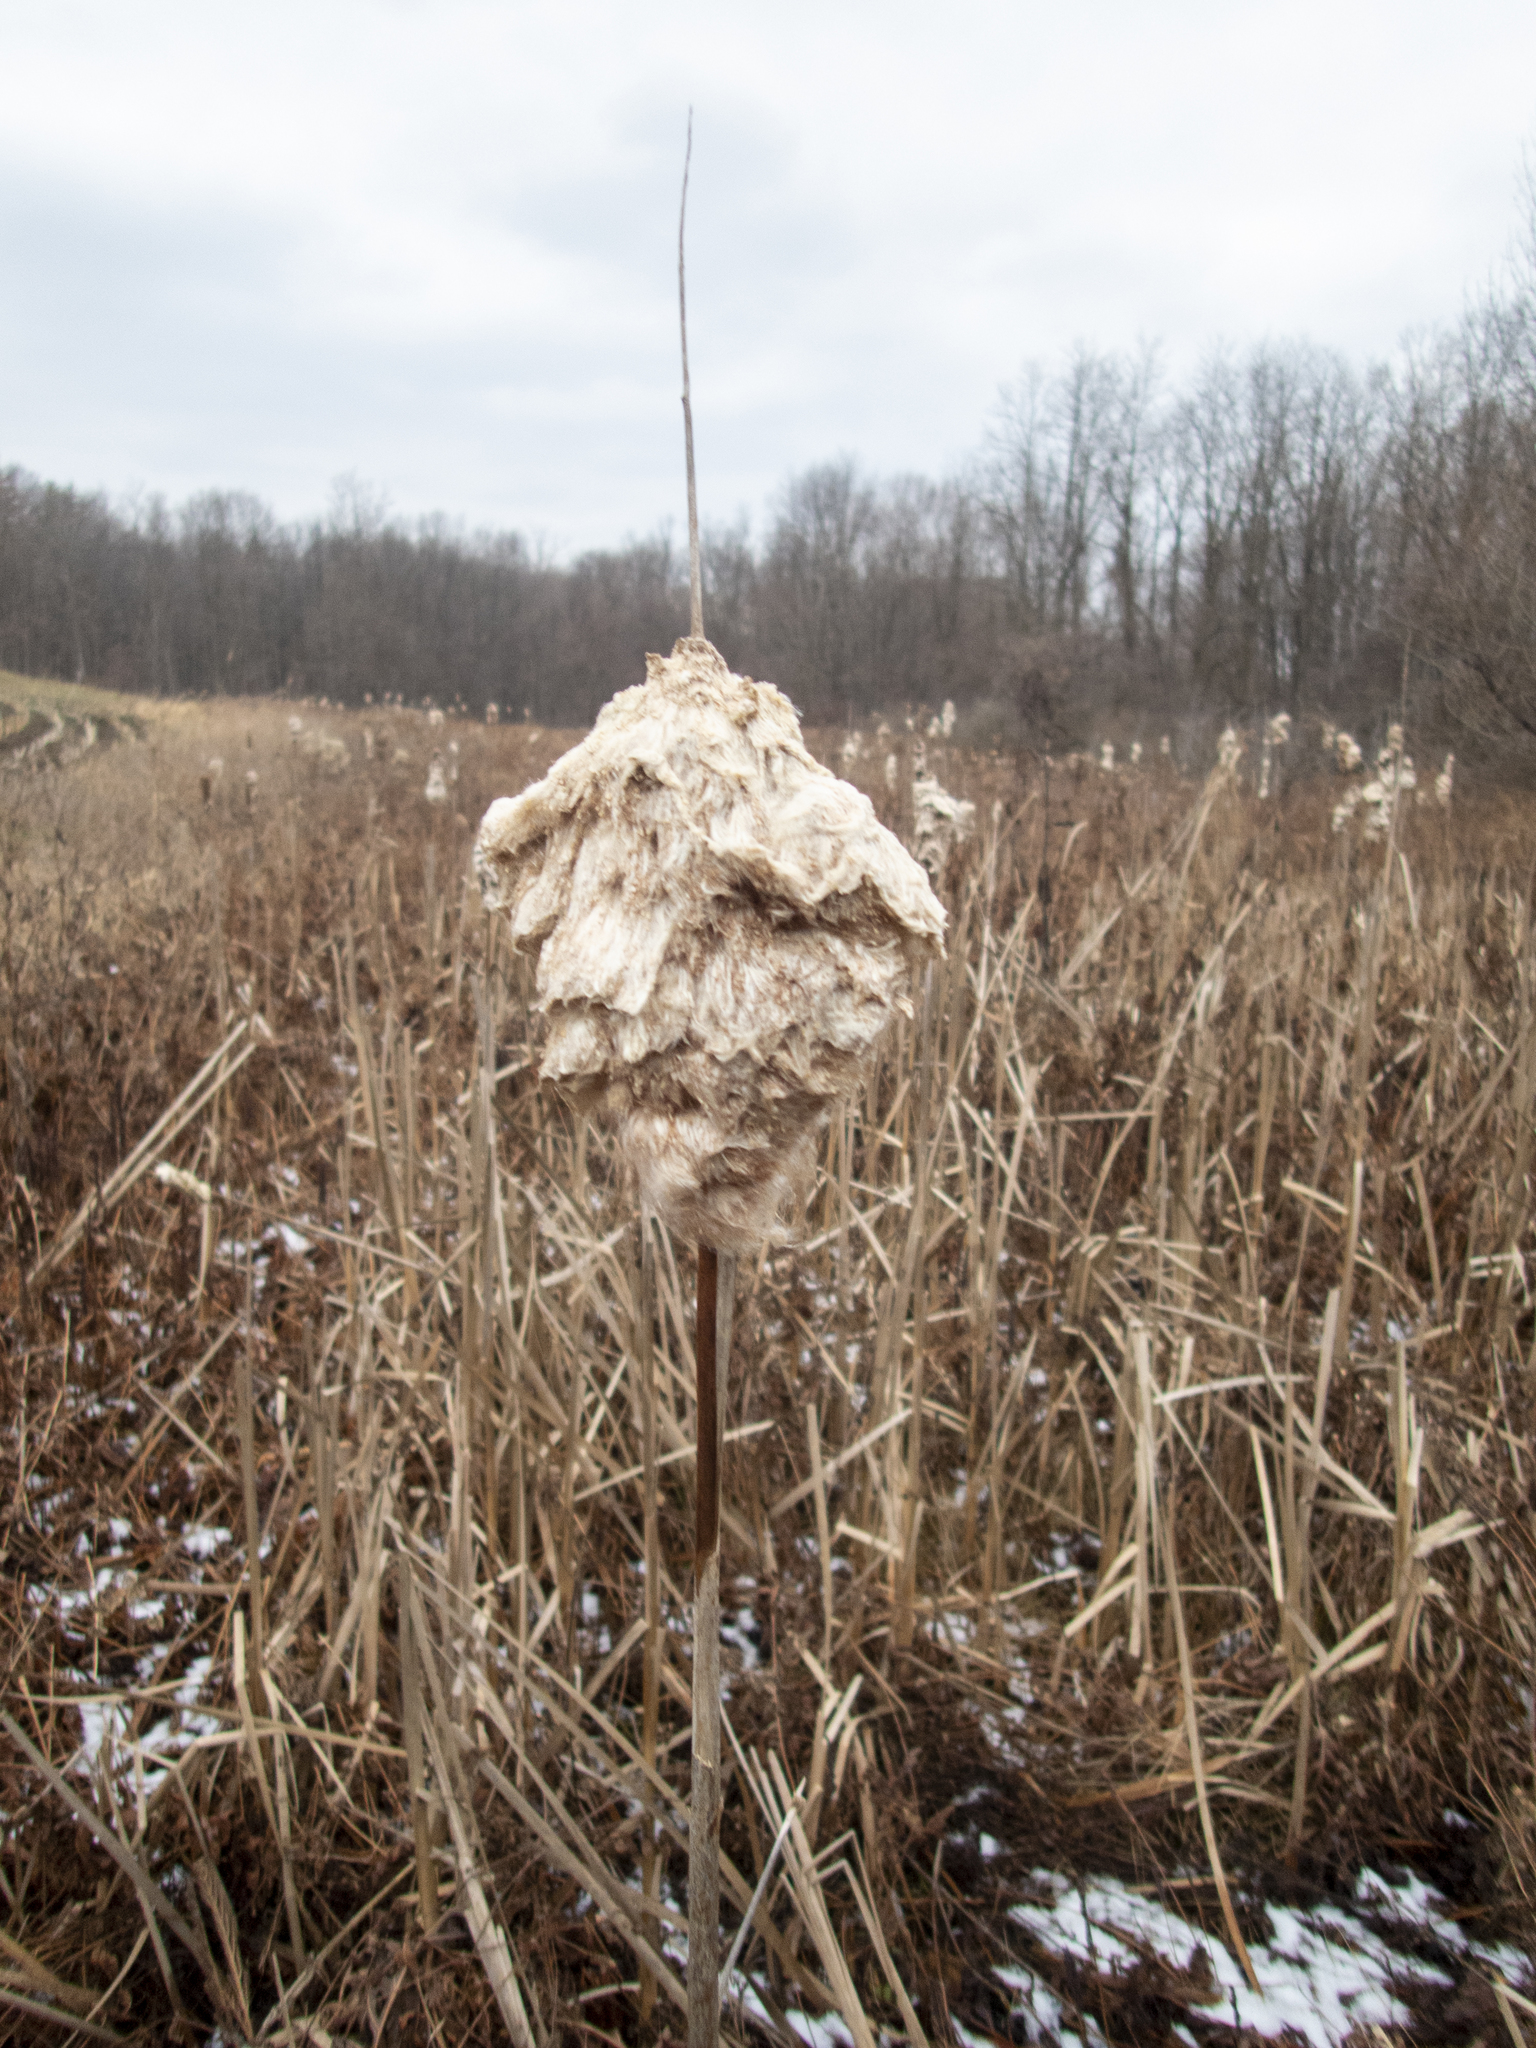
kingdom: Plantae
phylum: Tracheophyta
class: Liliopsida
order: Poales
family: Typhaceae
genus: Typha
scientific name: Typha
